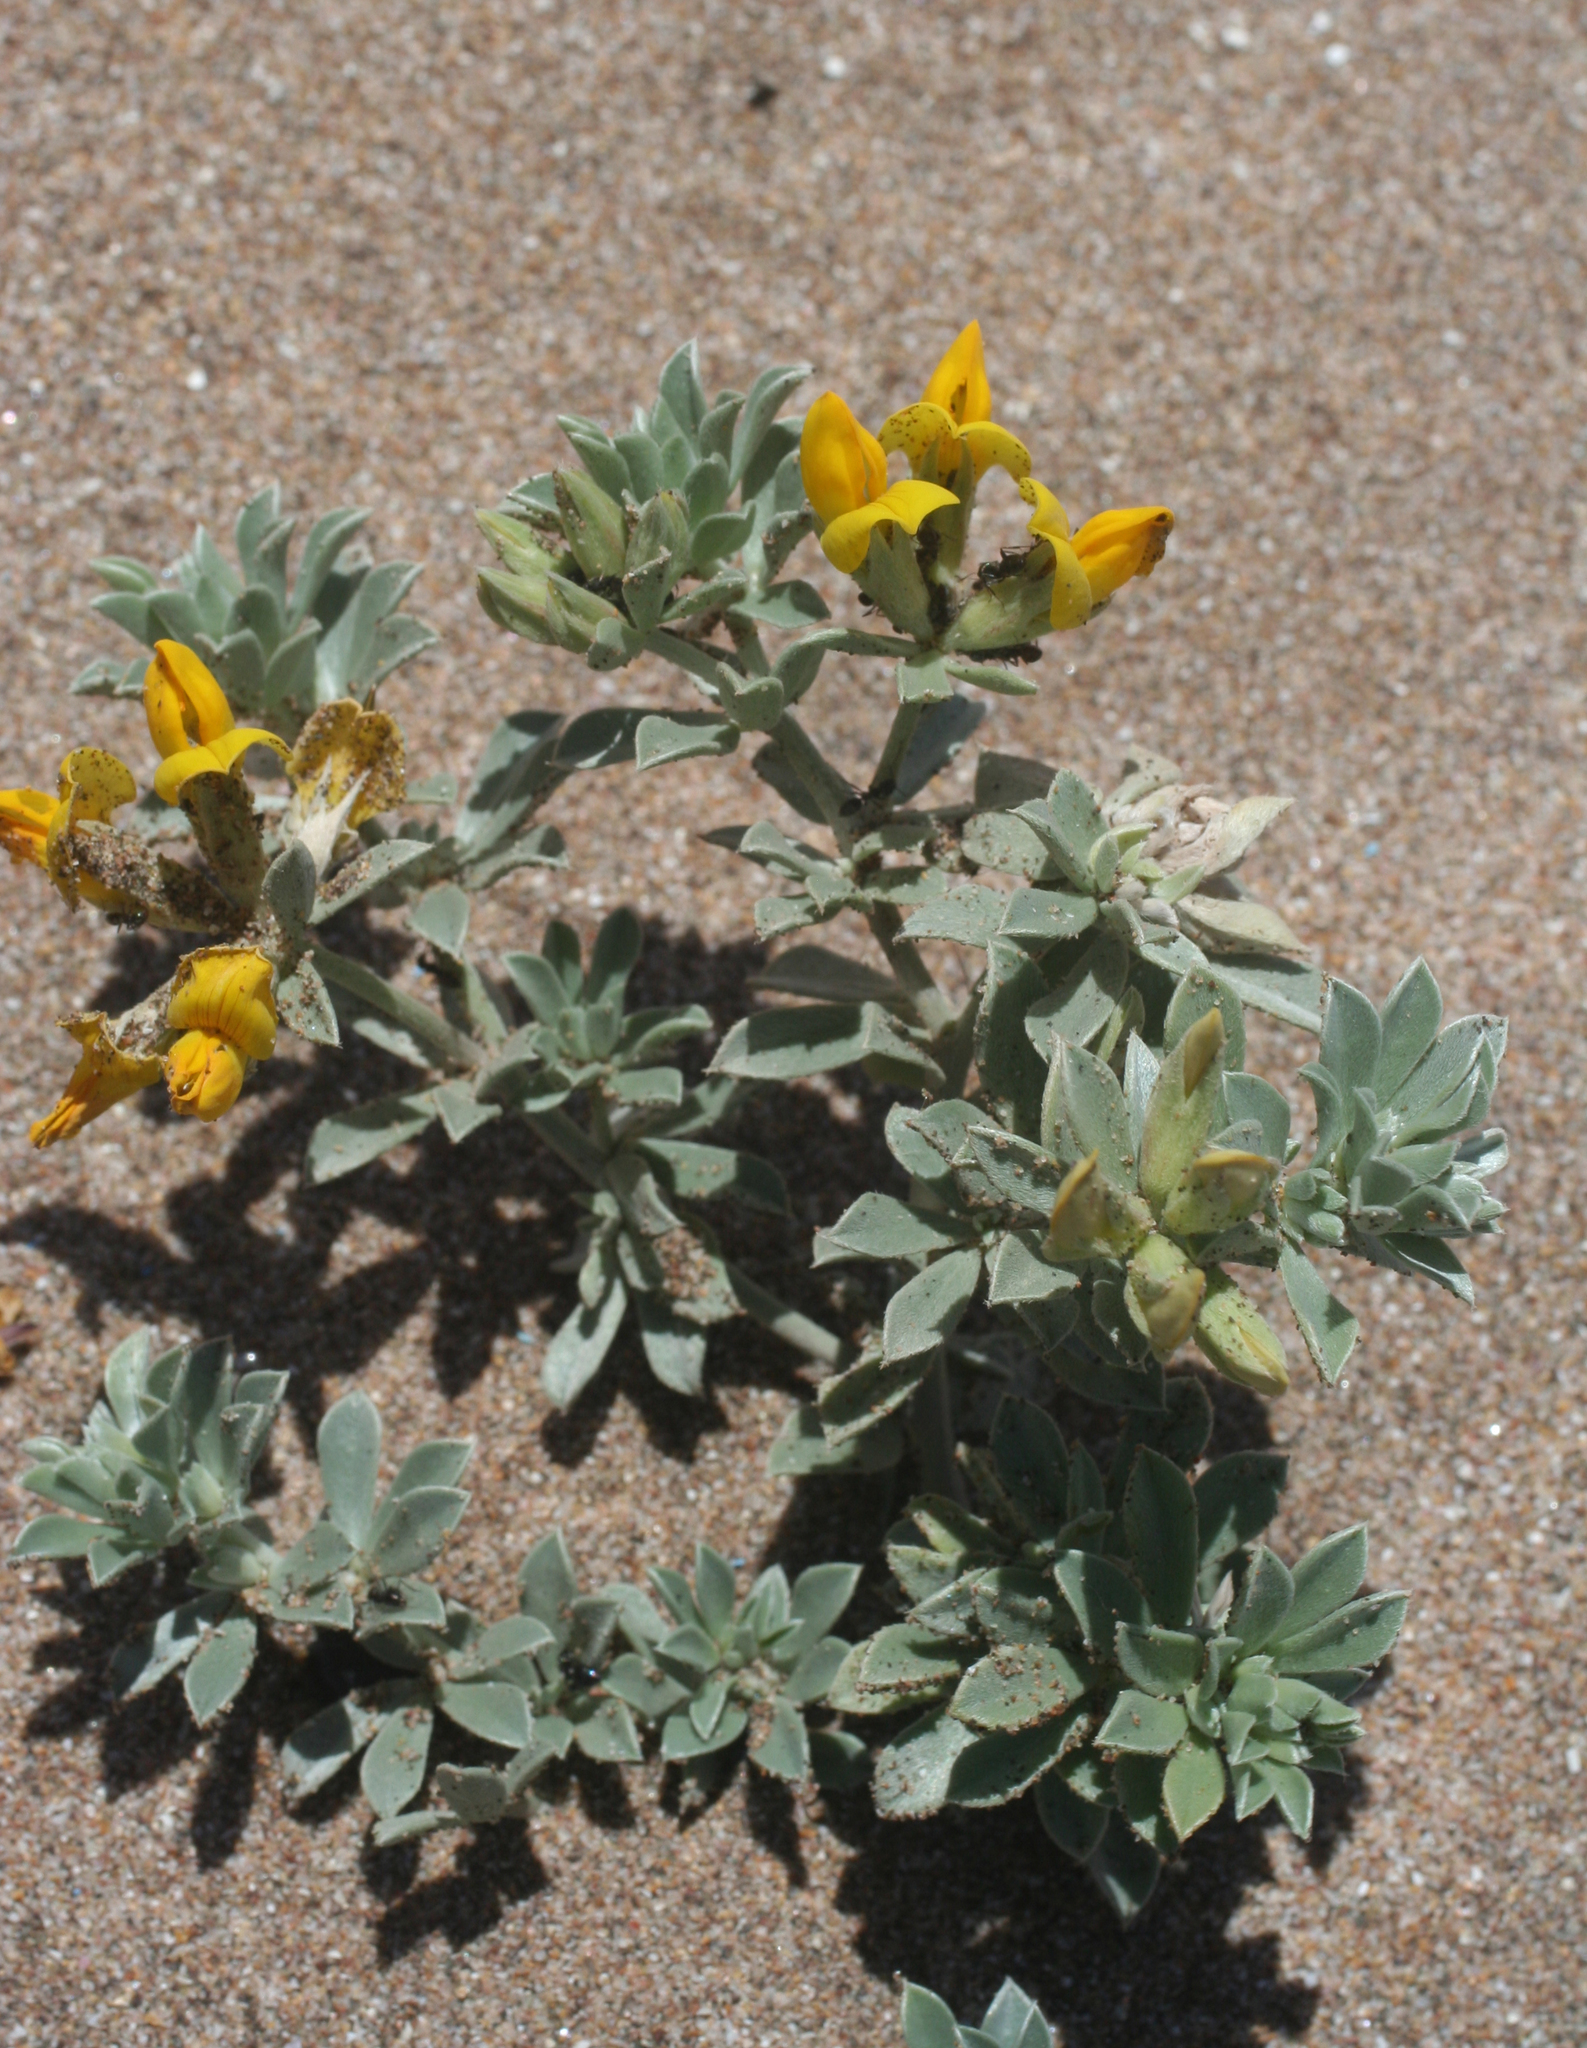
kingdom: Plantae
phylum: Tracheophyta
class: Magnoliopsida
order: Fabales
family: Fabaceae
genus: Lotus
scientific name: Lotus creticus
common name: Cretan bird's-foot trefoil
